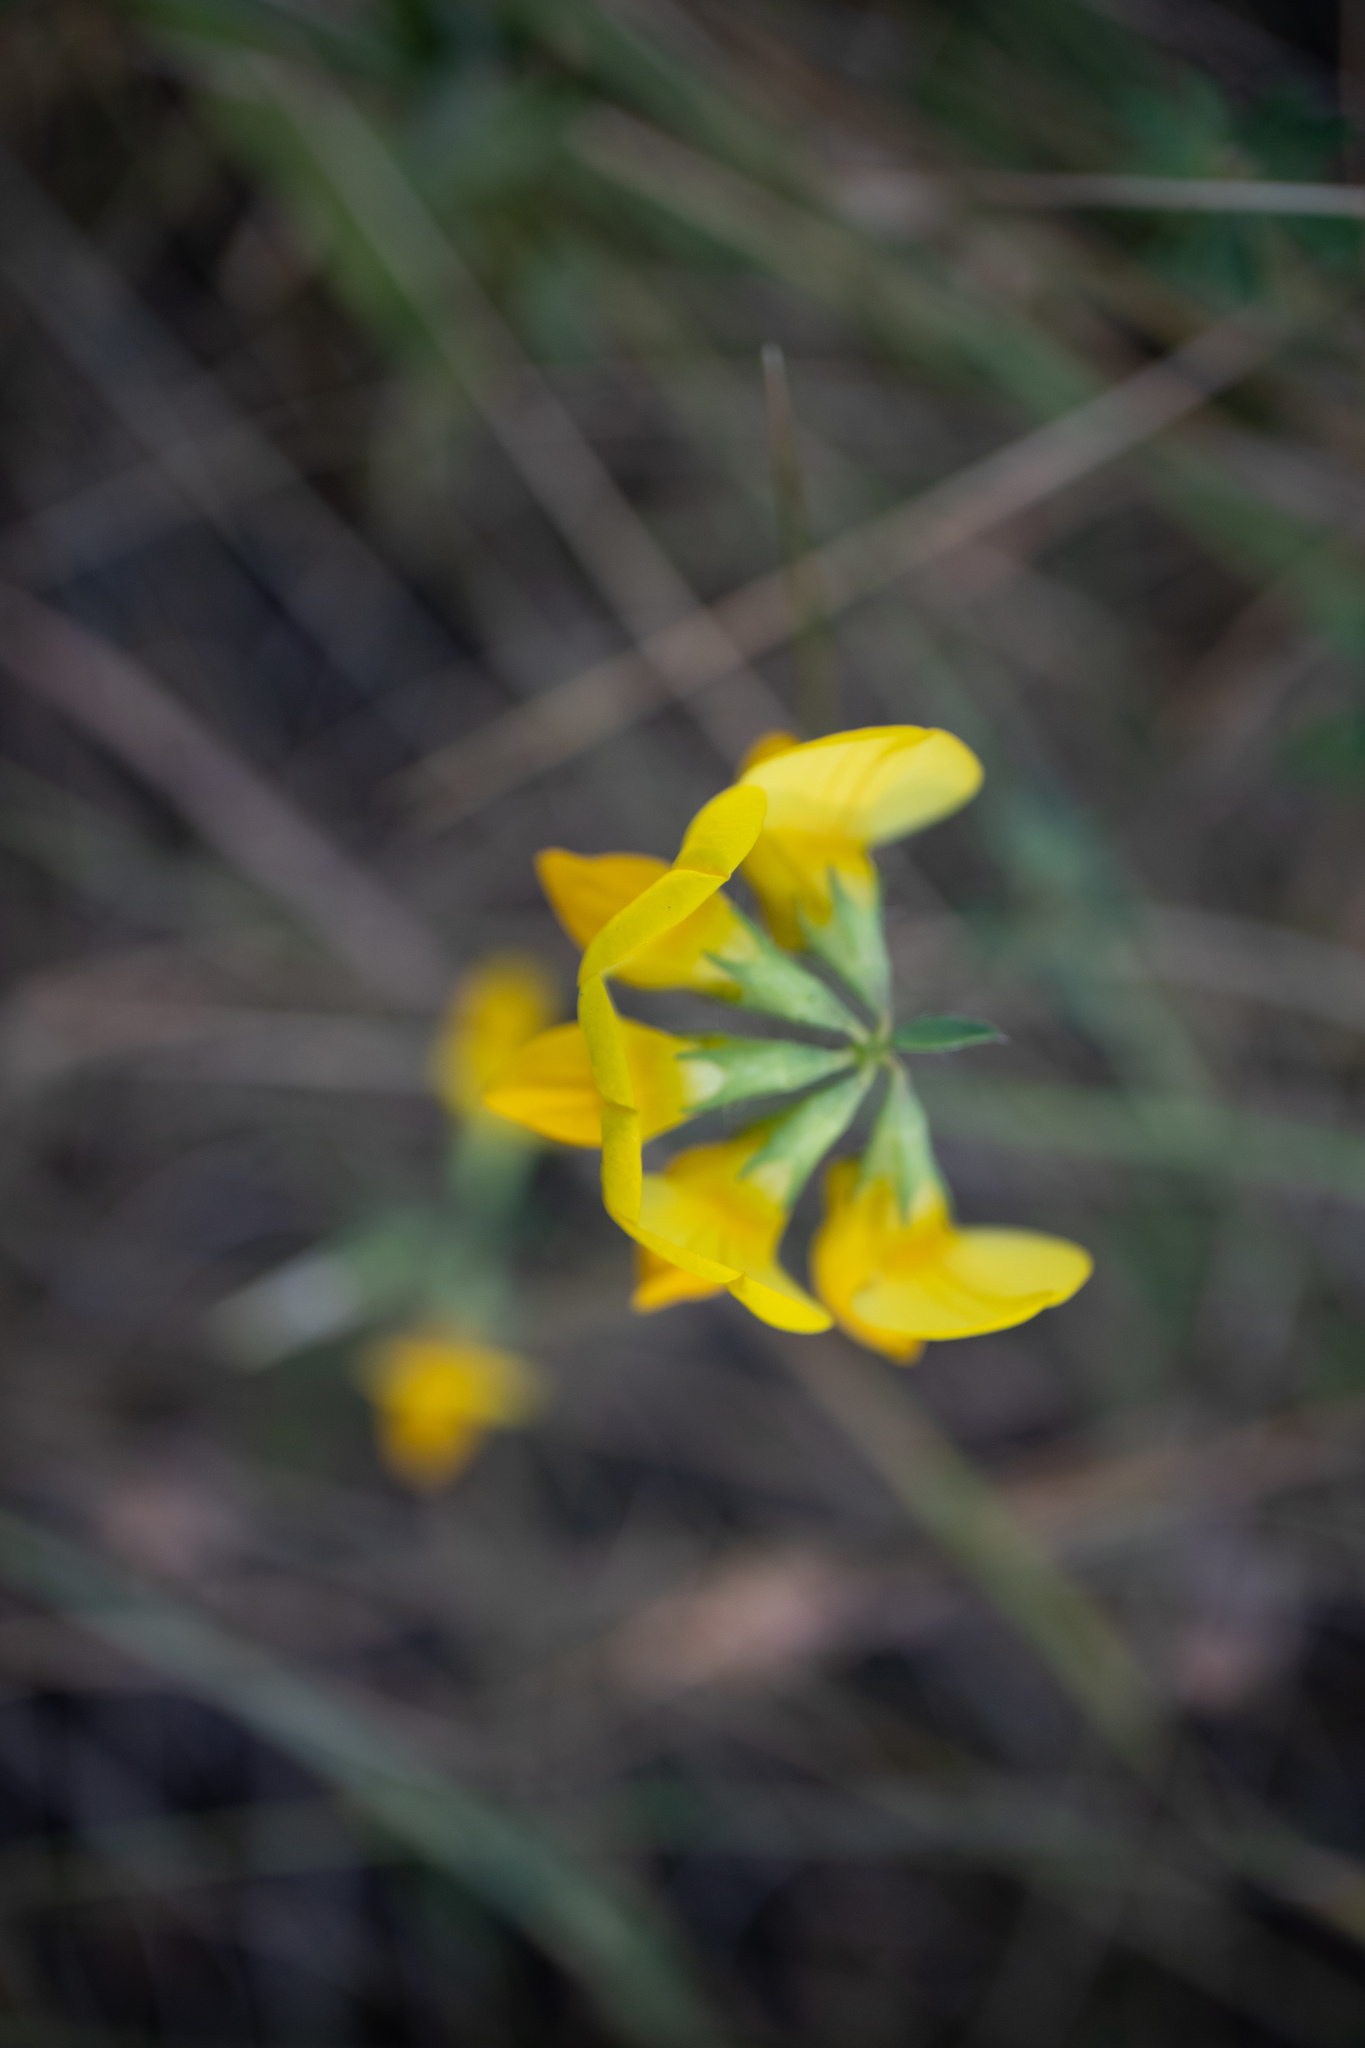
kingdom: Plantae
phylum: Tracheophyta
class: Magnoliopsida
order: Fabales
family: Fabaceae
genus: Lotus
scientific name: Lotus corniculatus
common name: Common bird's-foot-trefoil
